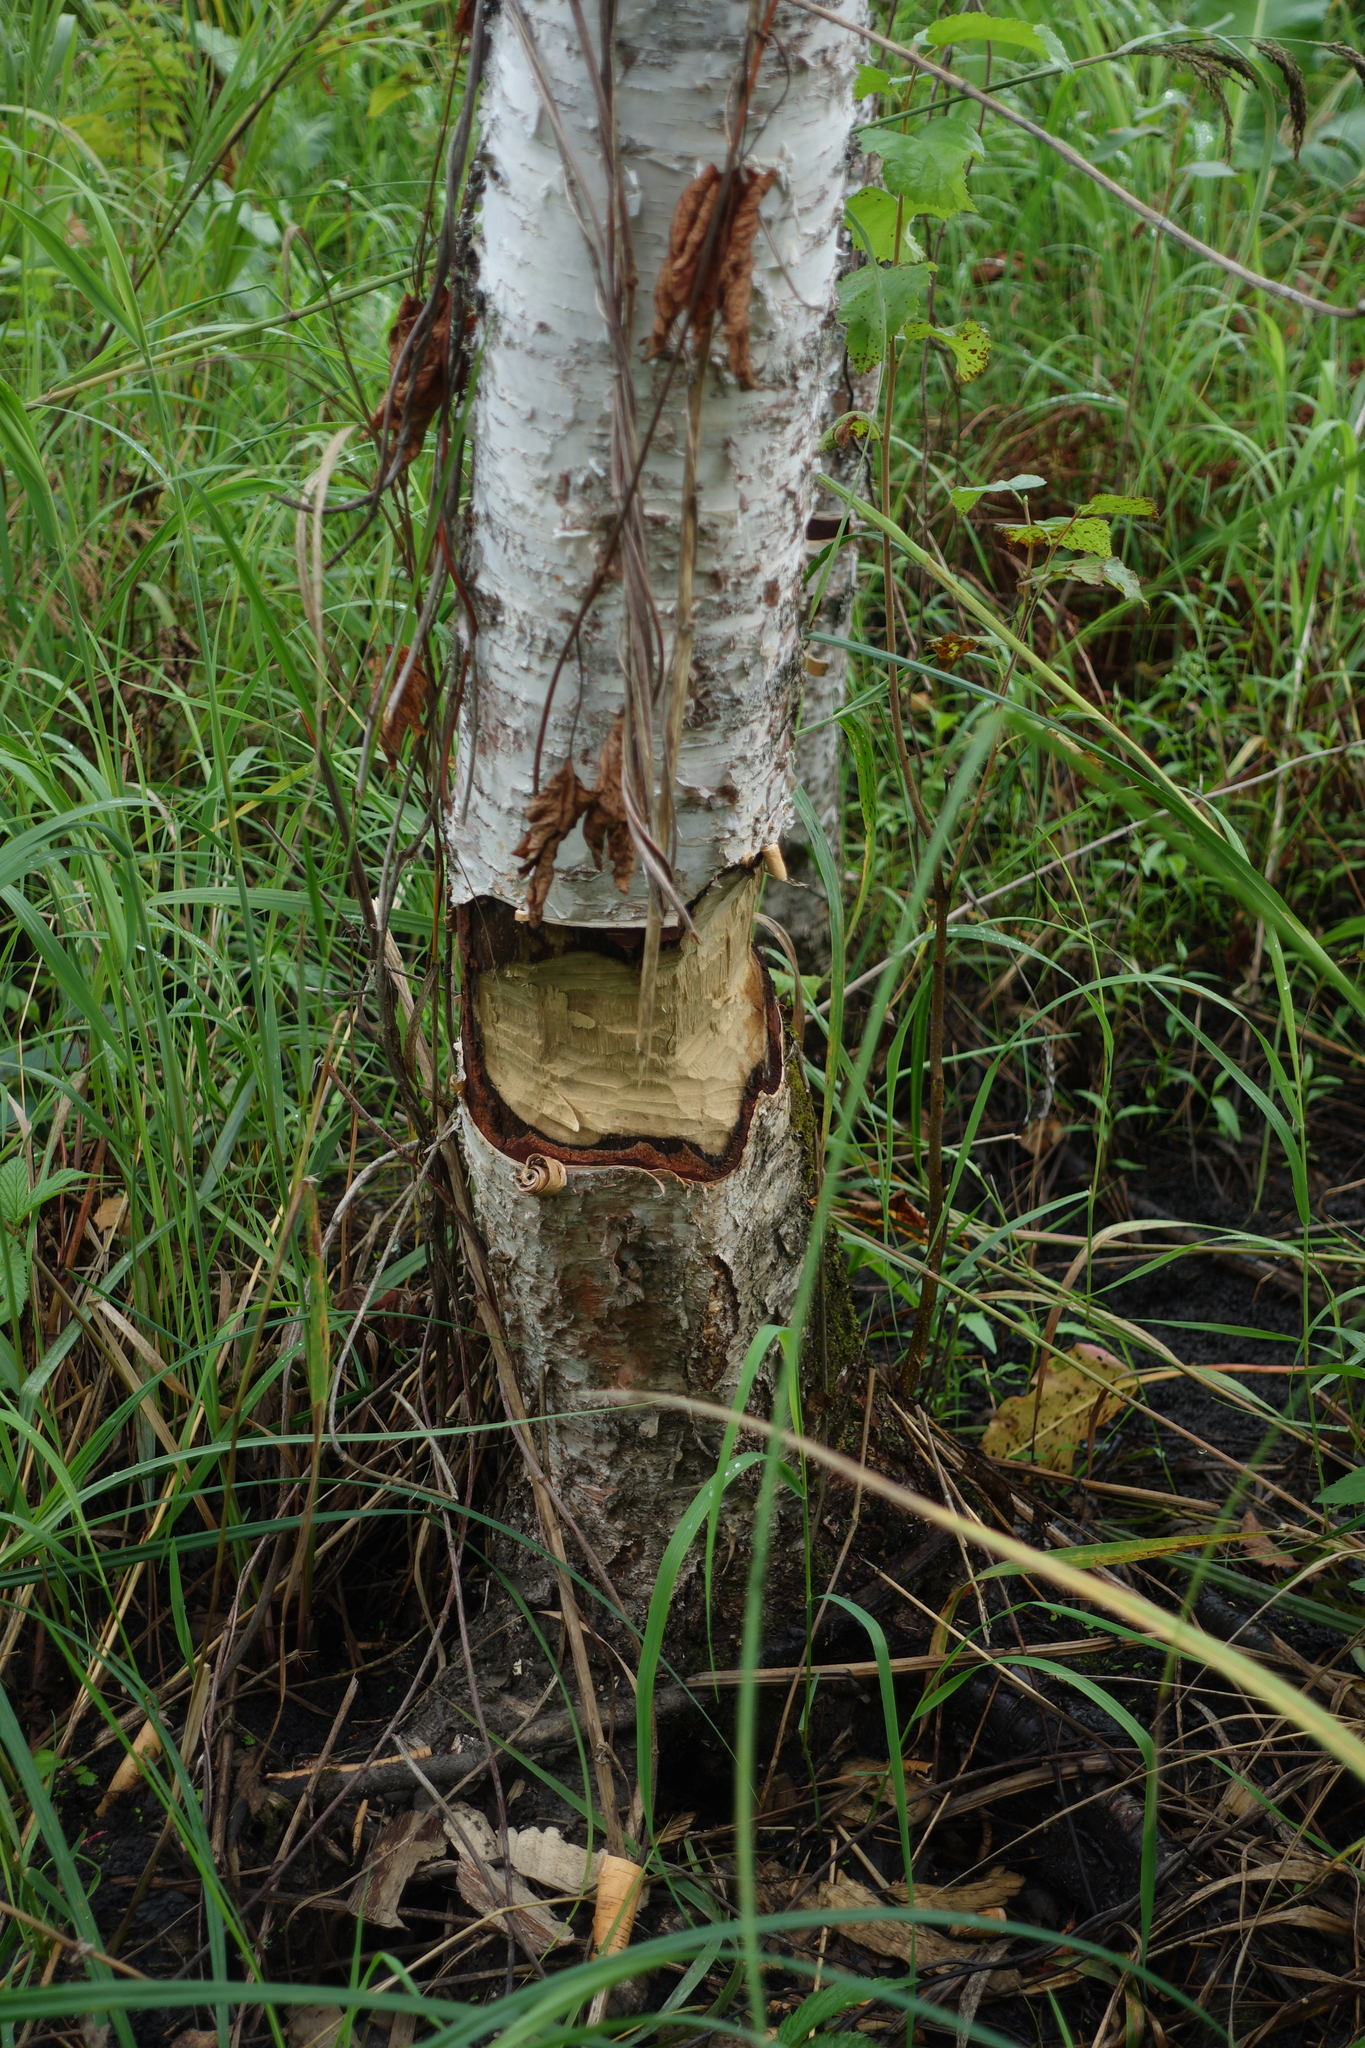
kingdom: Animalia
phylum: Chordata
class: Mammalia
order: Rodentia
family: Castoridae
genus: Castor
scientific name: Castor fiber
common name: Eurasian beaver
